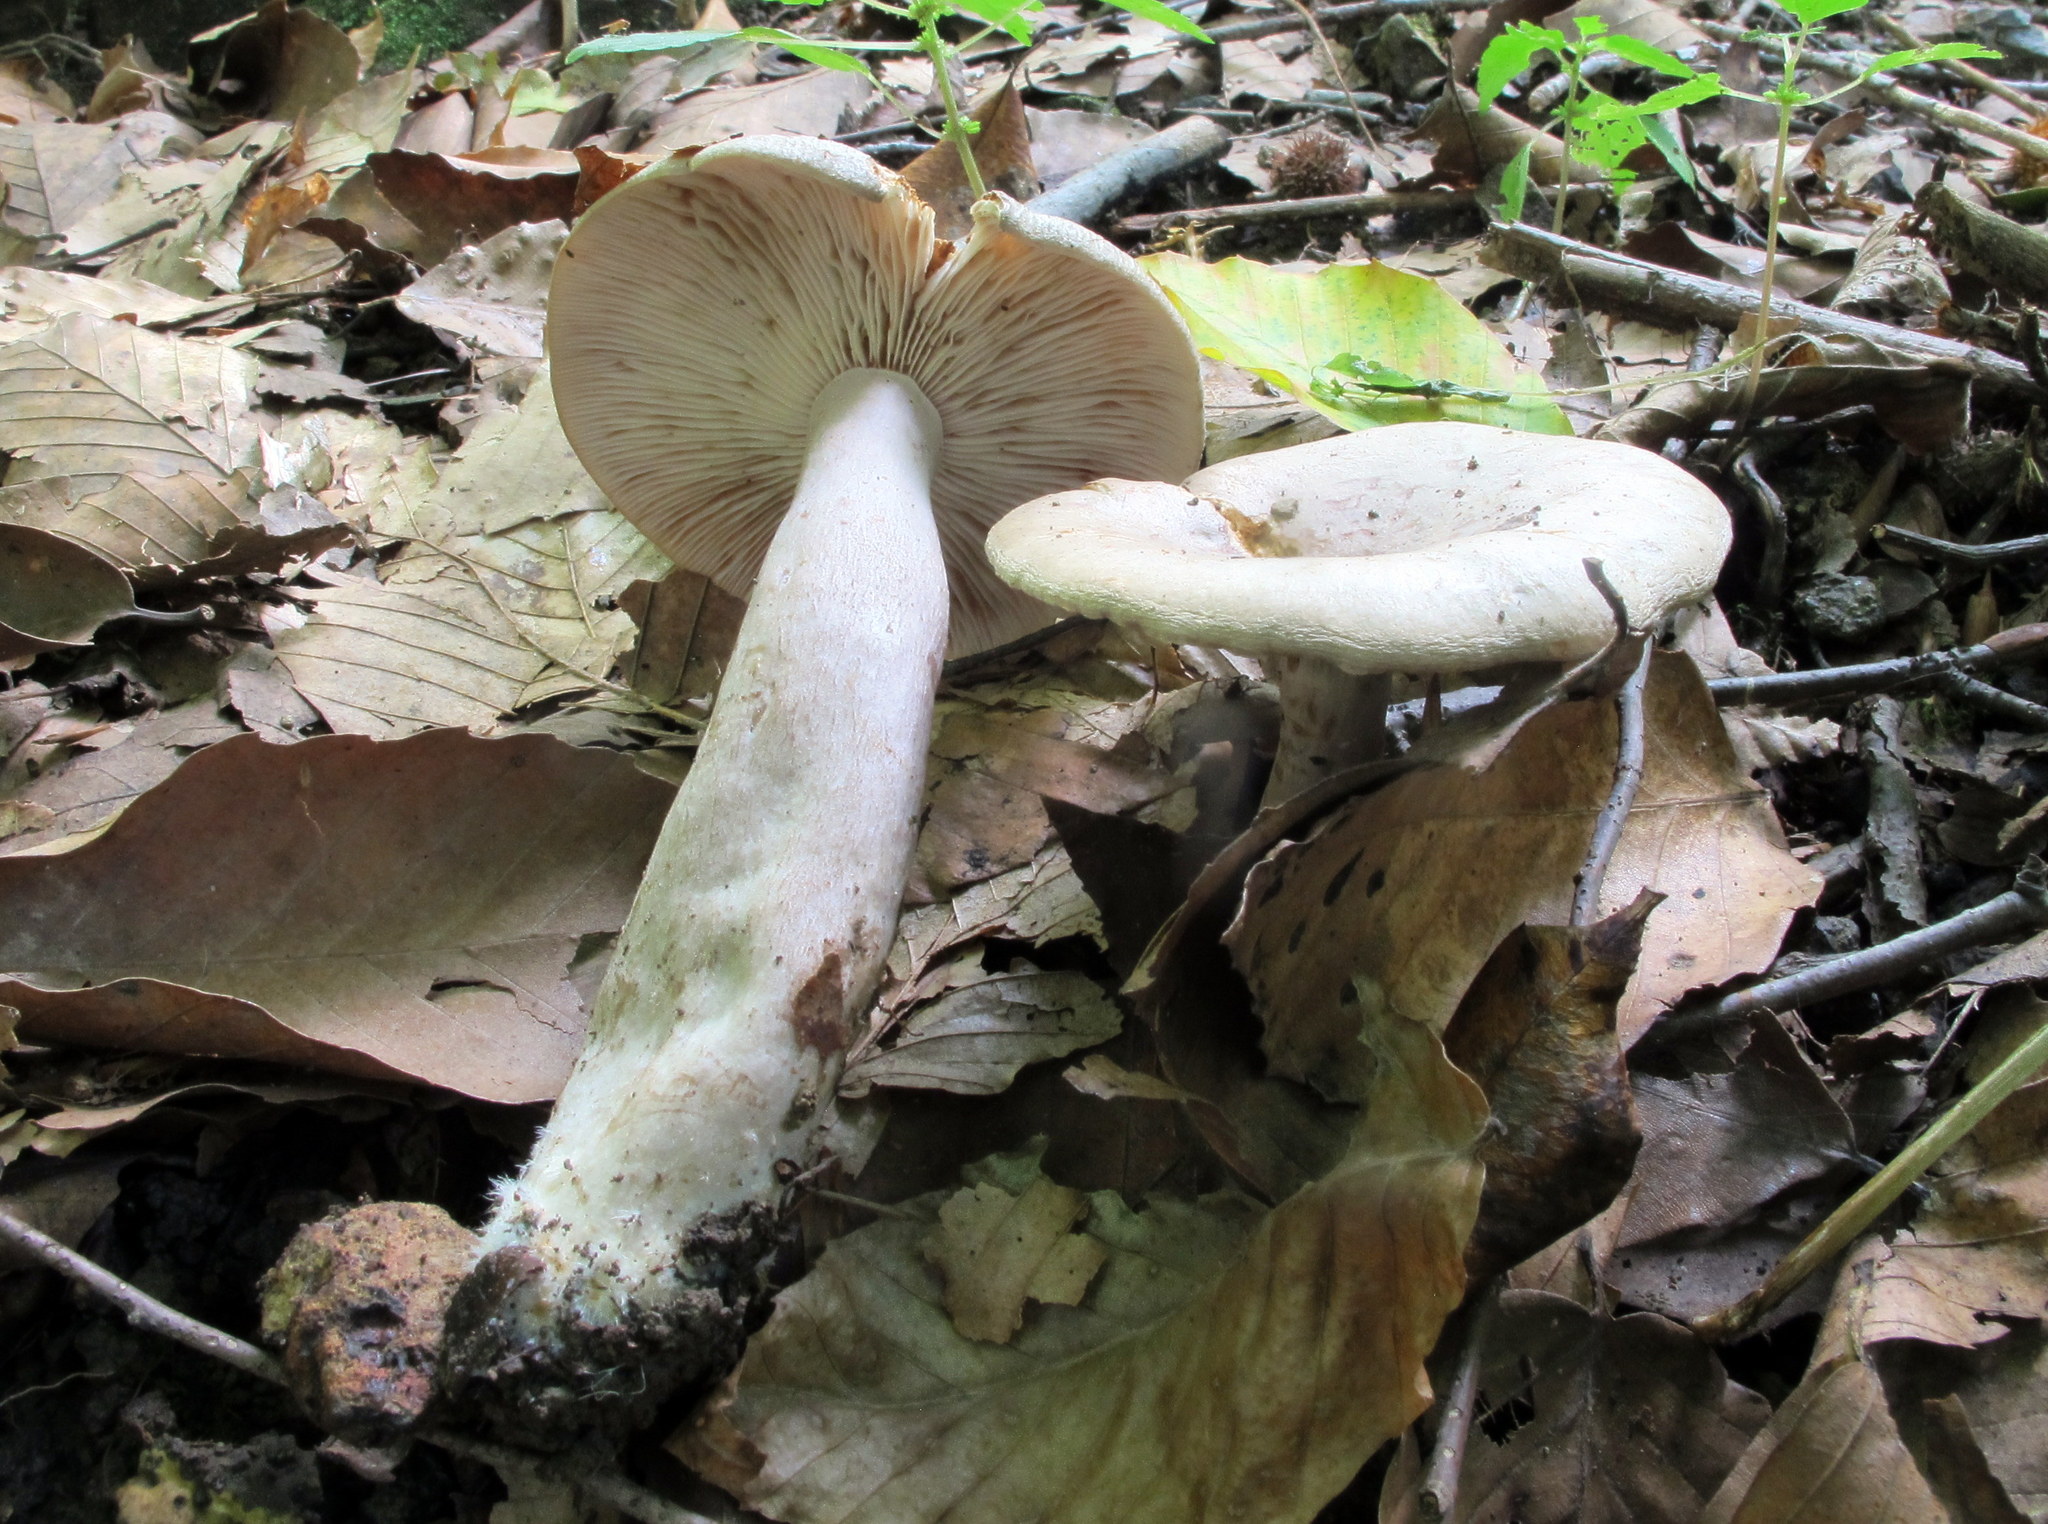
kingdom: Fungi
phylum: Basidiomycota
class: Agaricomycetes
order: Russulales
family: Russulaceae
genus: Lactarius
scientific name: Lactarius cinereus
